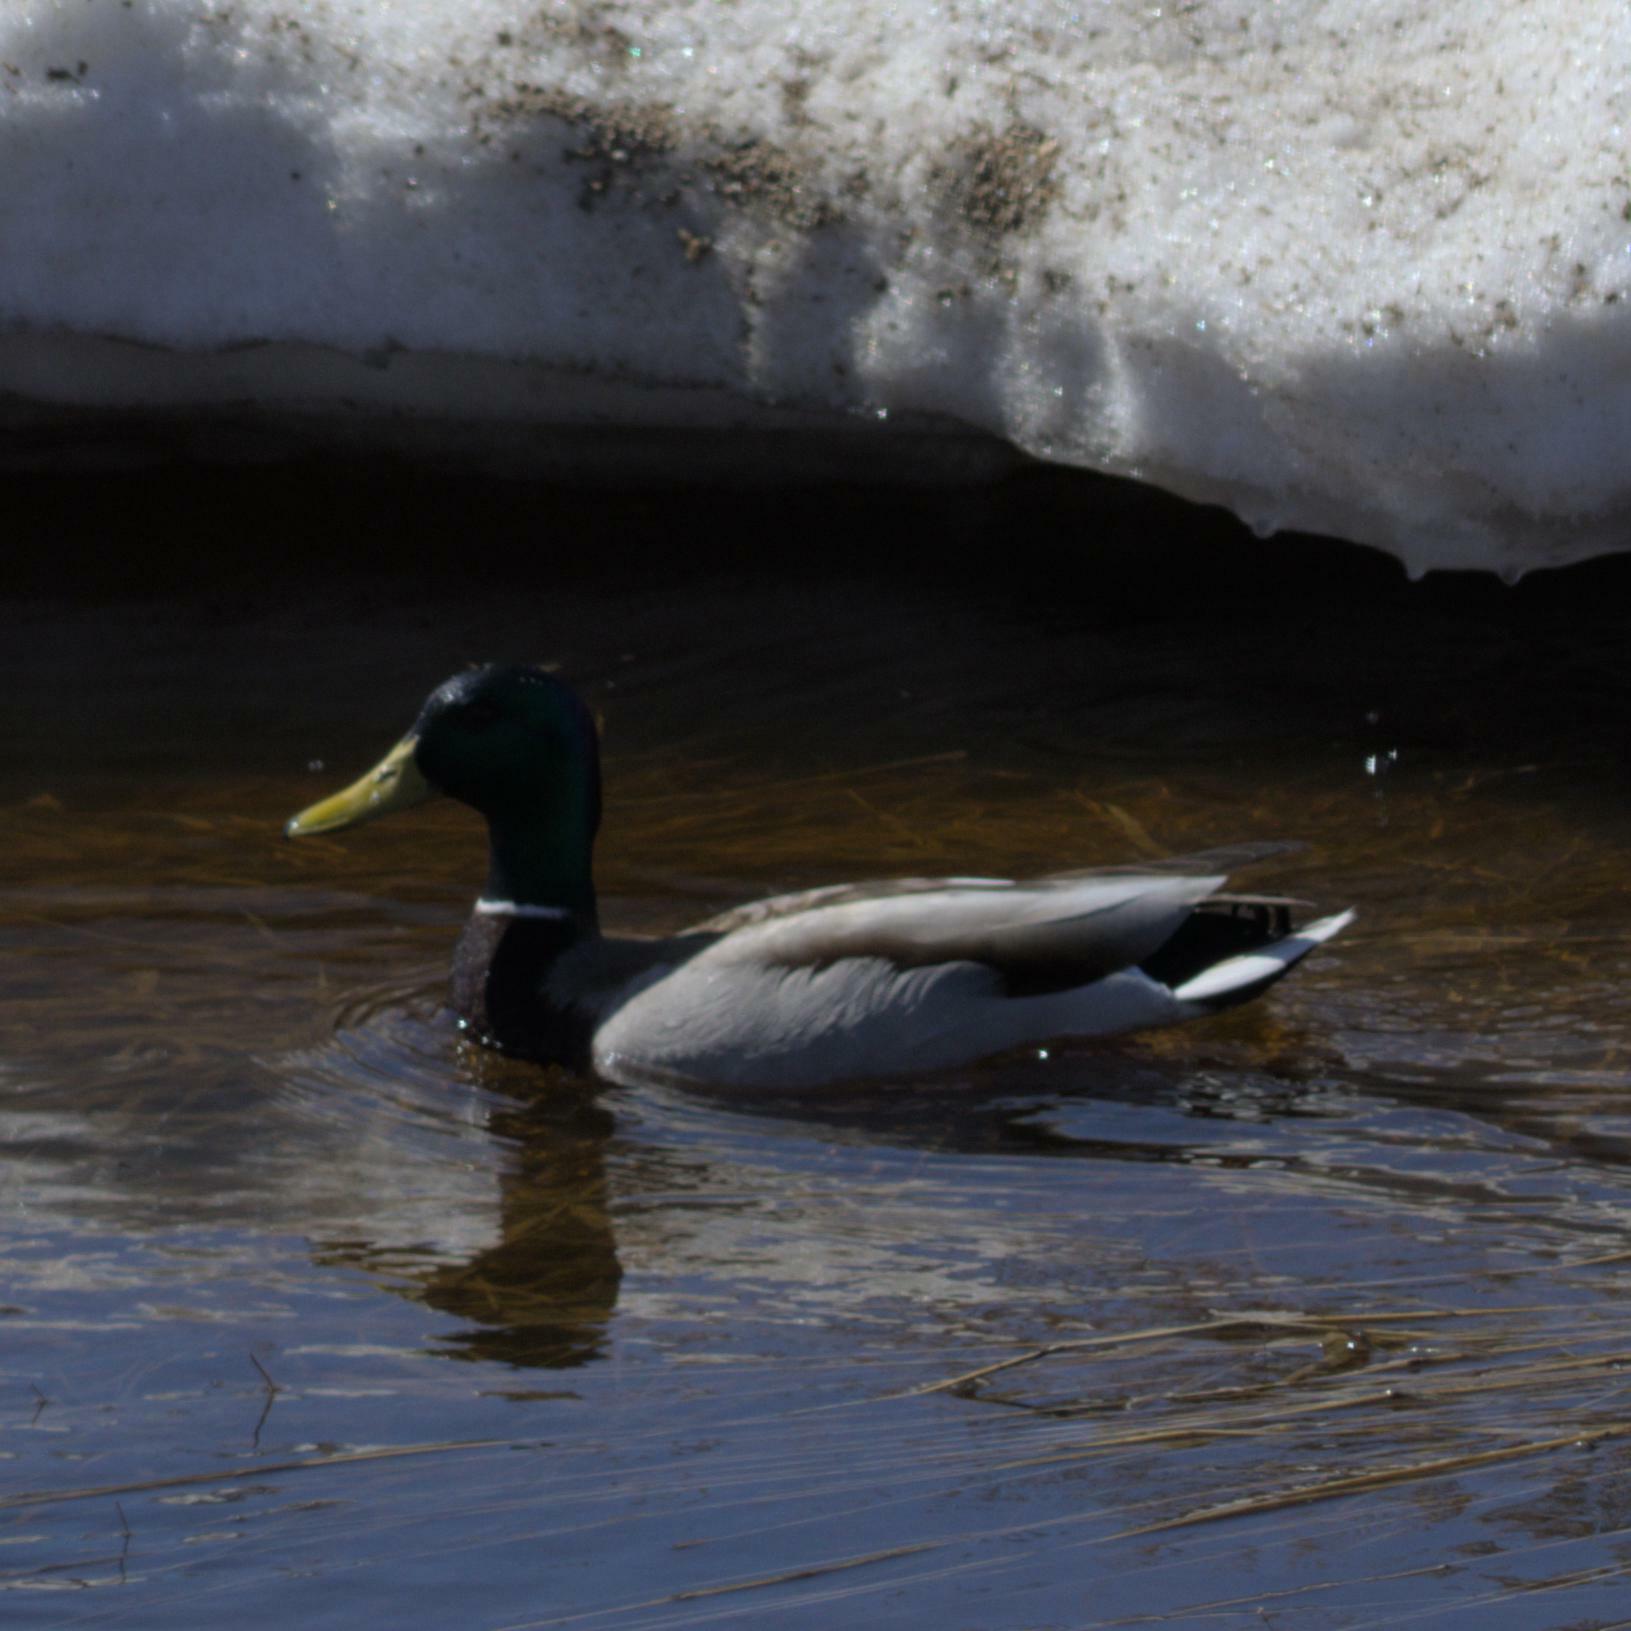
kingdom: Animalia
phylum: Chordata
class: Aves
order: Anseriformes
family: Anatidae
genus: Anas
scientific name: Anas platyrhynchos
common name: Mallard
